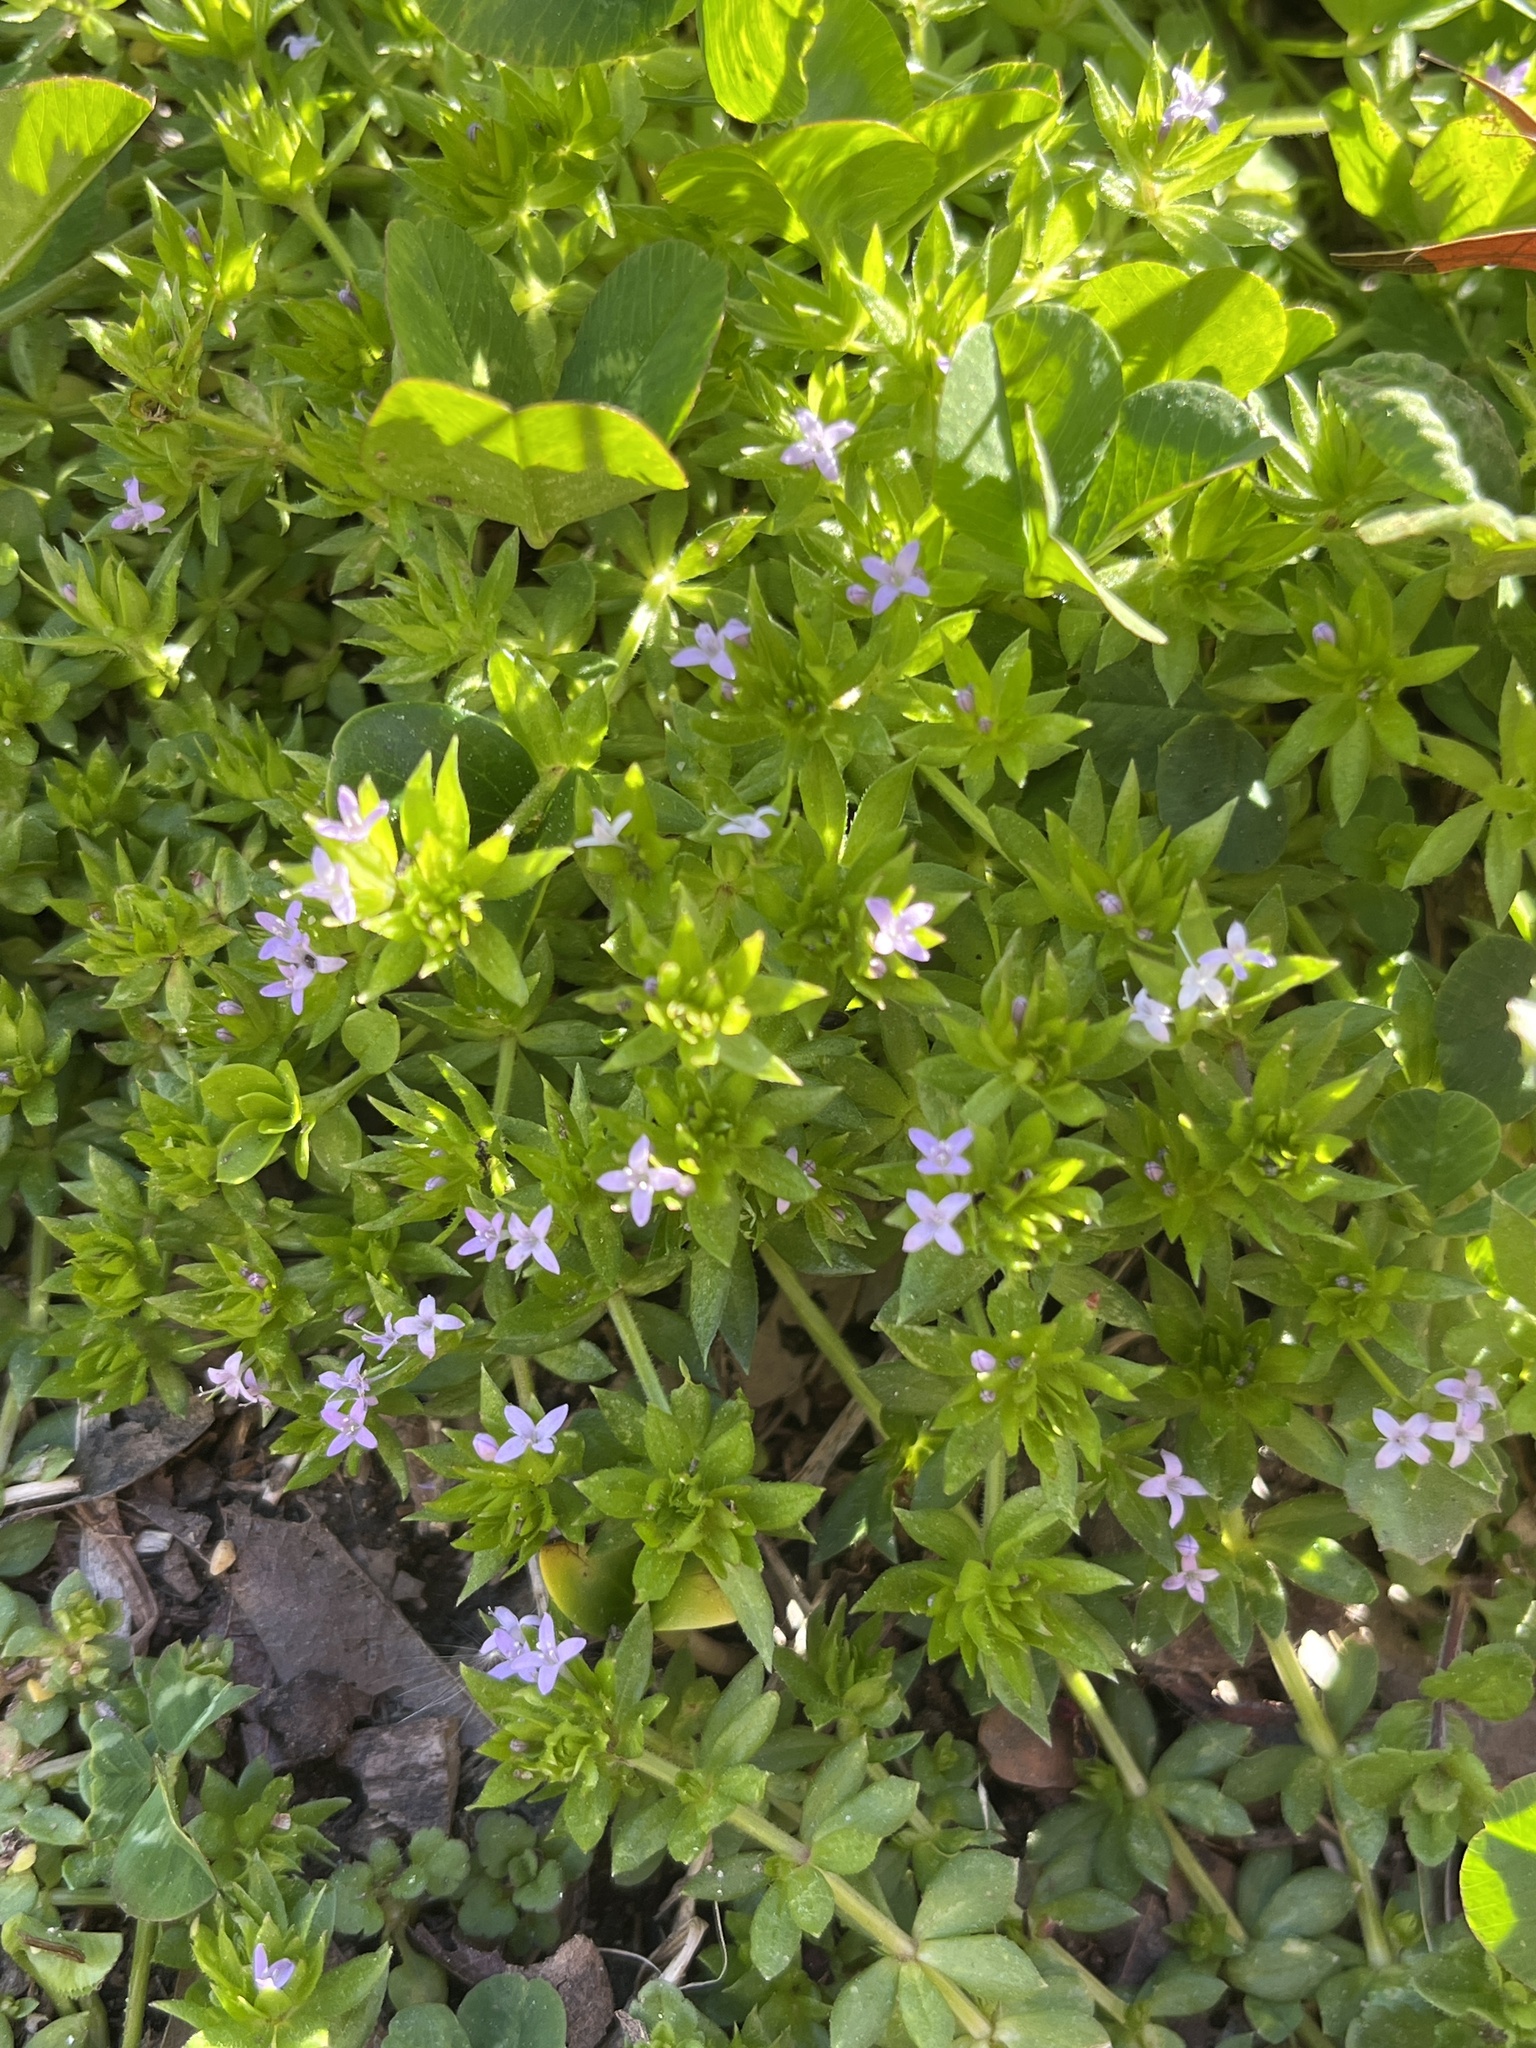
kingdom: Plantae
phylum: Tracheophyta
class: Magnoliopsida
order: Gentianales
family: Rubiaceae
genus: Sherardia
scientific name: Sherardia arvensis
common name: Field madder
